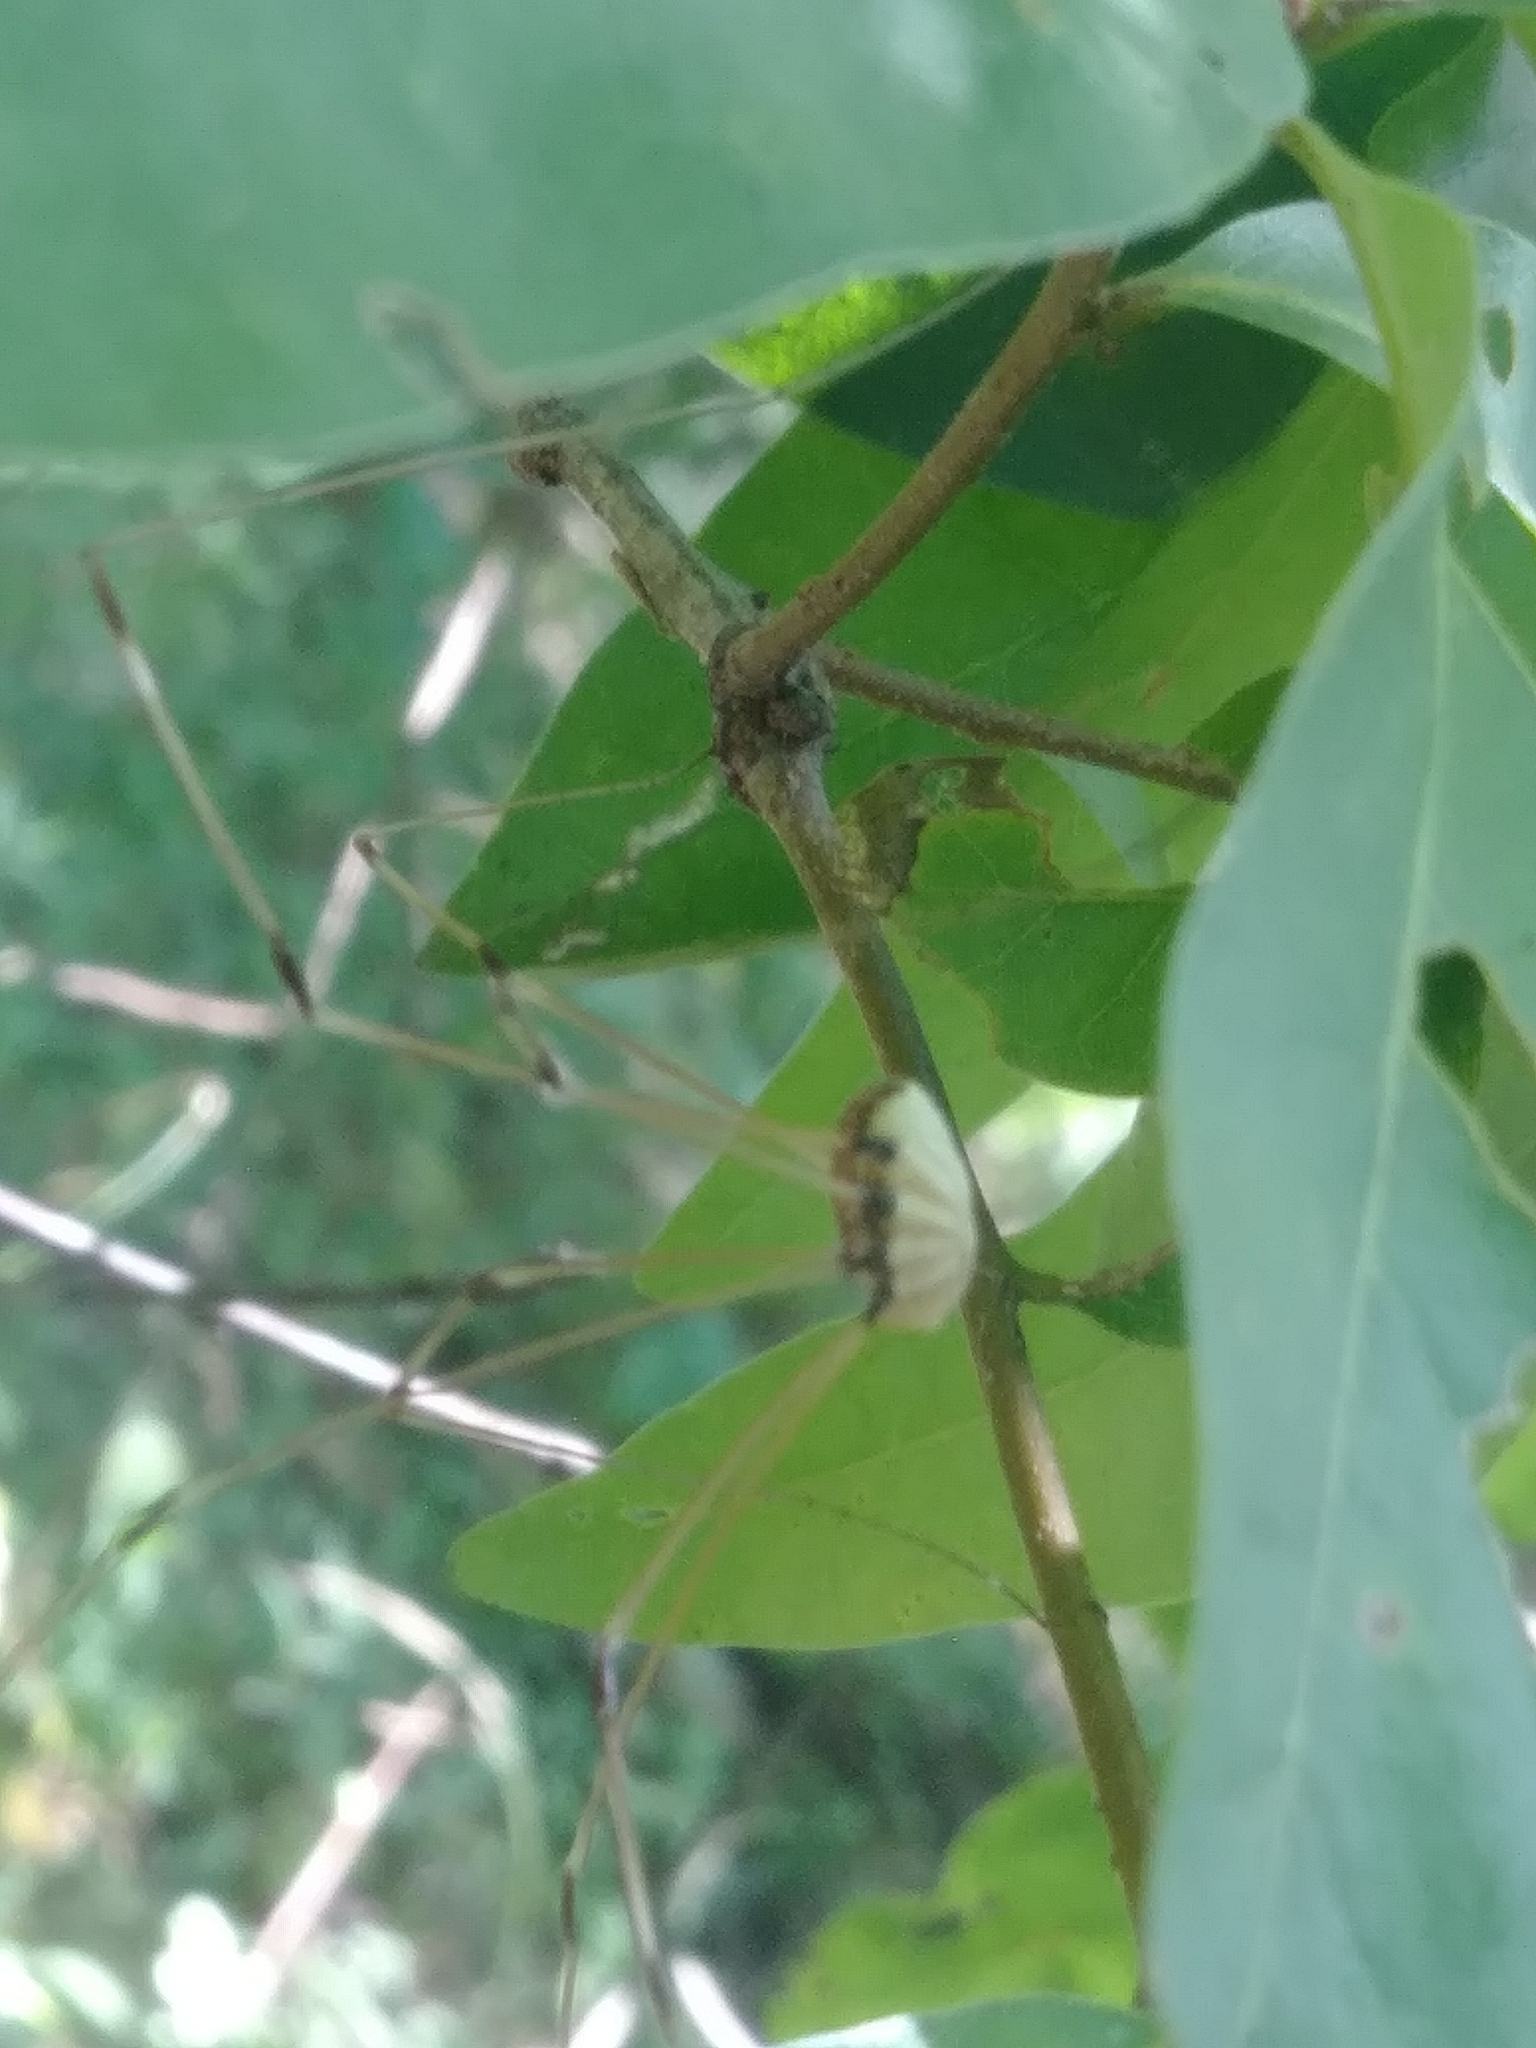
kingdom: Animalia
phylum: Arthropoda
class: Arachnida
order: Opiliones
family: Sclerosomatidae
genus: Leiobunum
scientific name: Leiobunum vittatum
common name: Eastern harvestman
